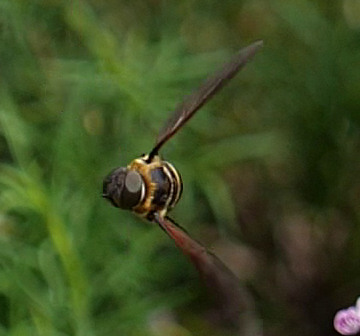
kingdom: Animalia
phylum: Arthropoda
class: Insecta
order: Diptera
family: Bombyliidae
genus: Exoprosopa
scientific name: Exoprosopa fasciata
